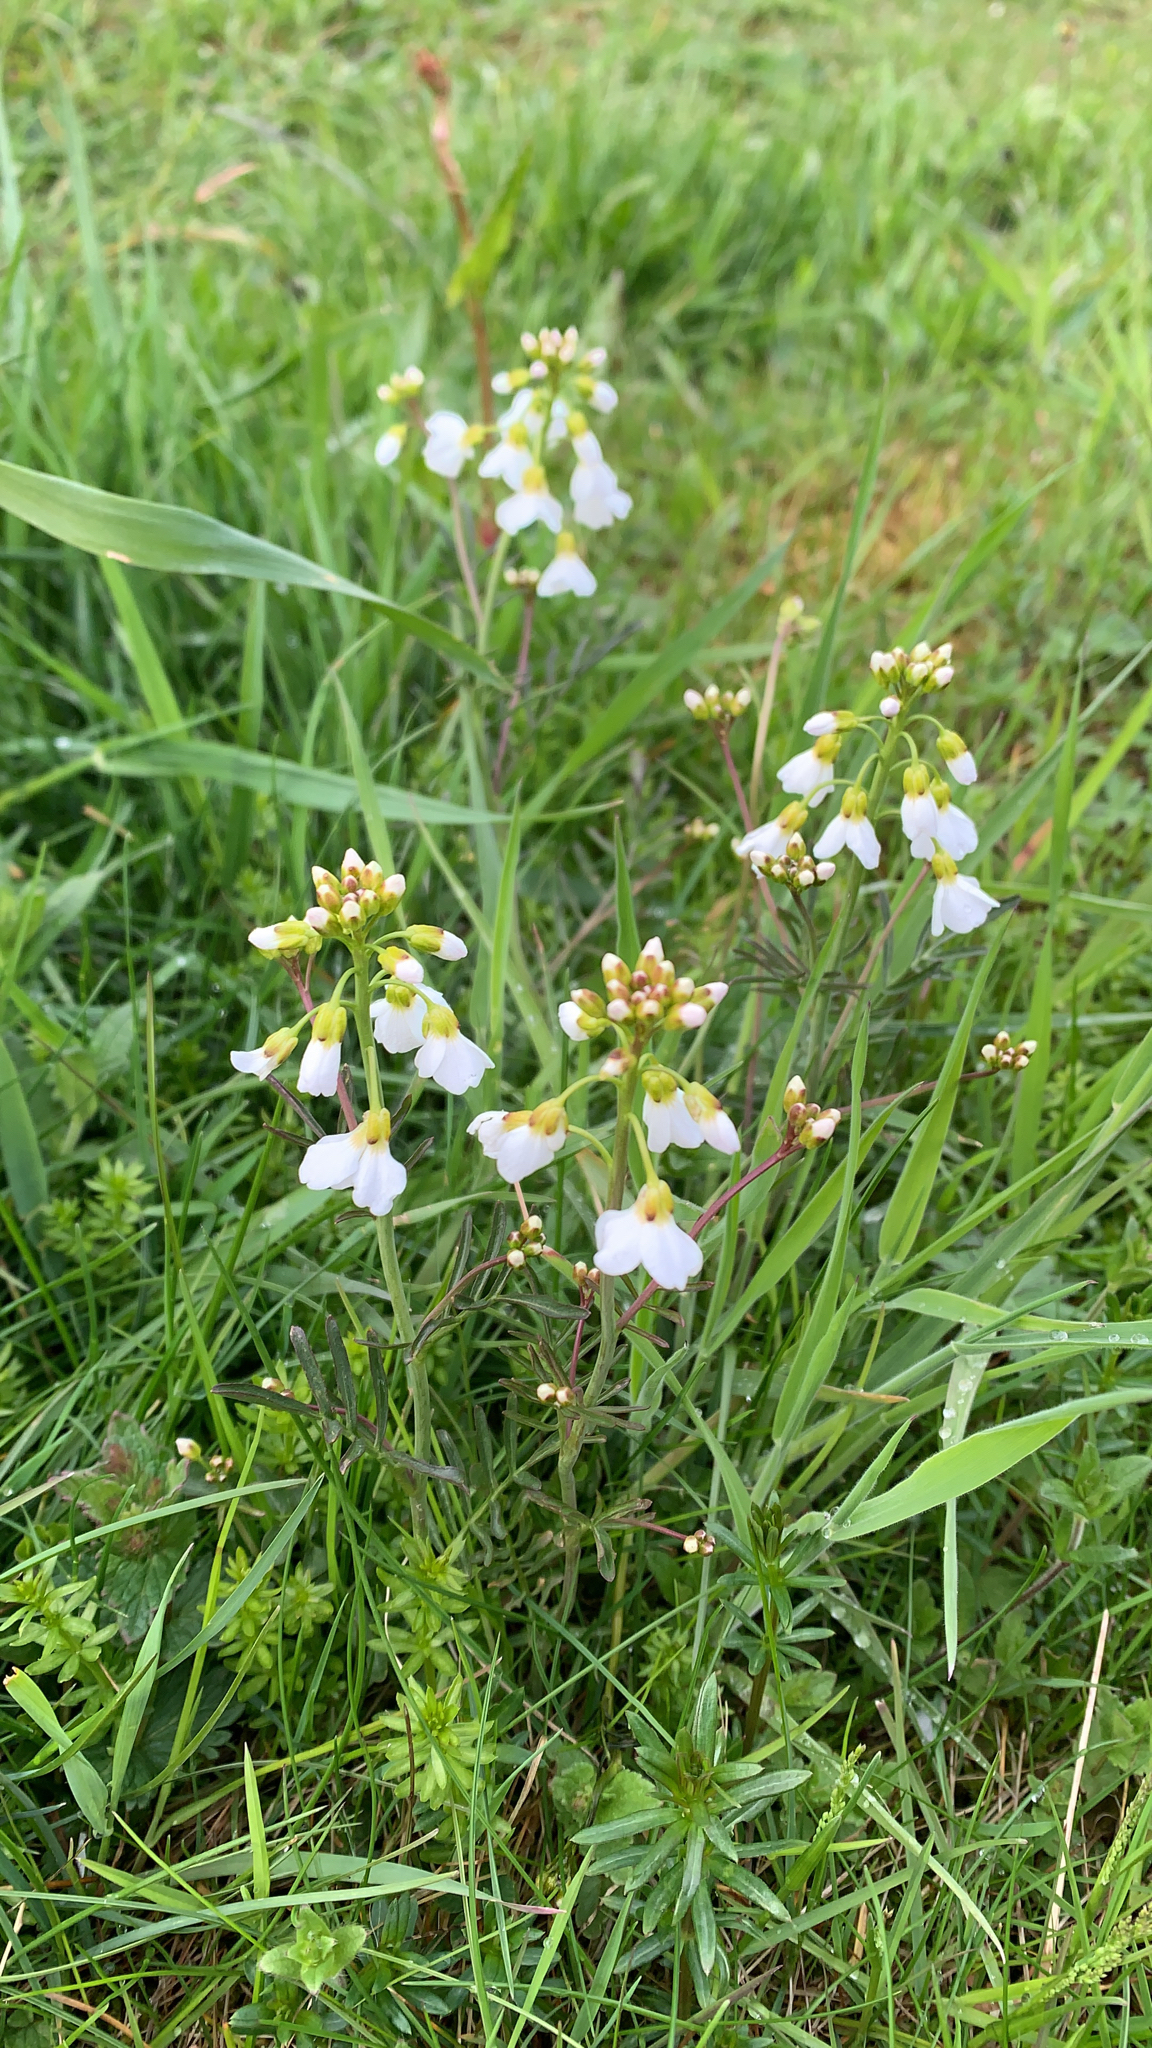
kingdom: Plantae
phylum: Tracheophyta
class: Magnoliopsida
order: Brassicales
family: Brassicaceae
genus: Cardamine
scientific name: Cardamine pratensis
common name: Cuckoo flower
